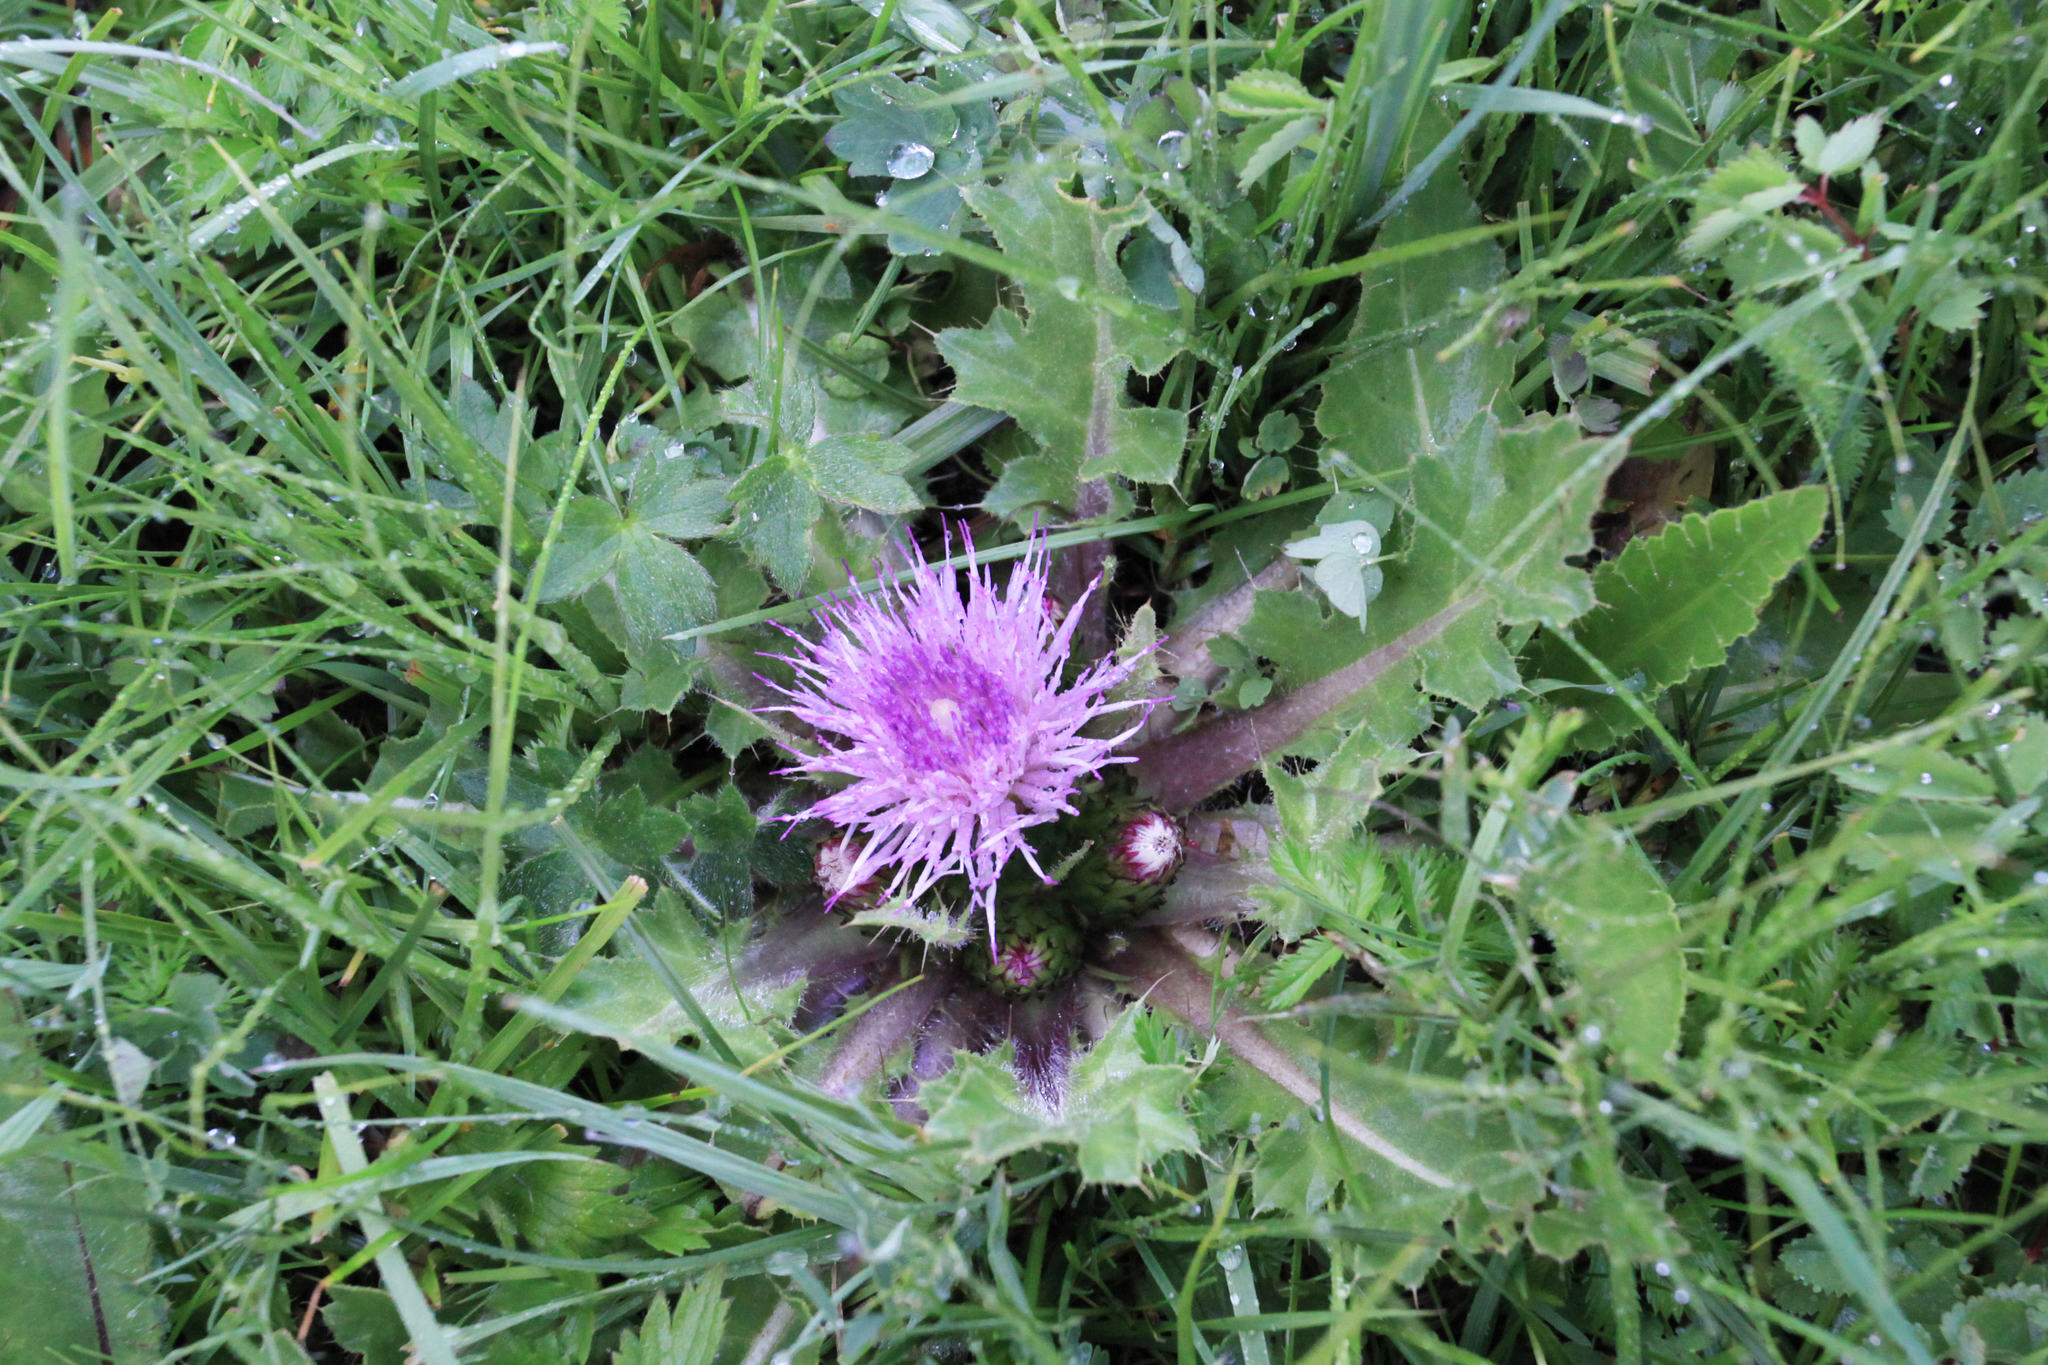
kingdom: Plantae
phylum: Tracheophyta
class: Magnoliopsida
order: Asterales
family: Asteraceae
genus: Cirsium
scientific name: Cirsium esculentum
